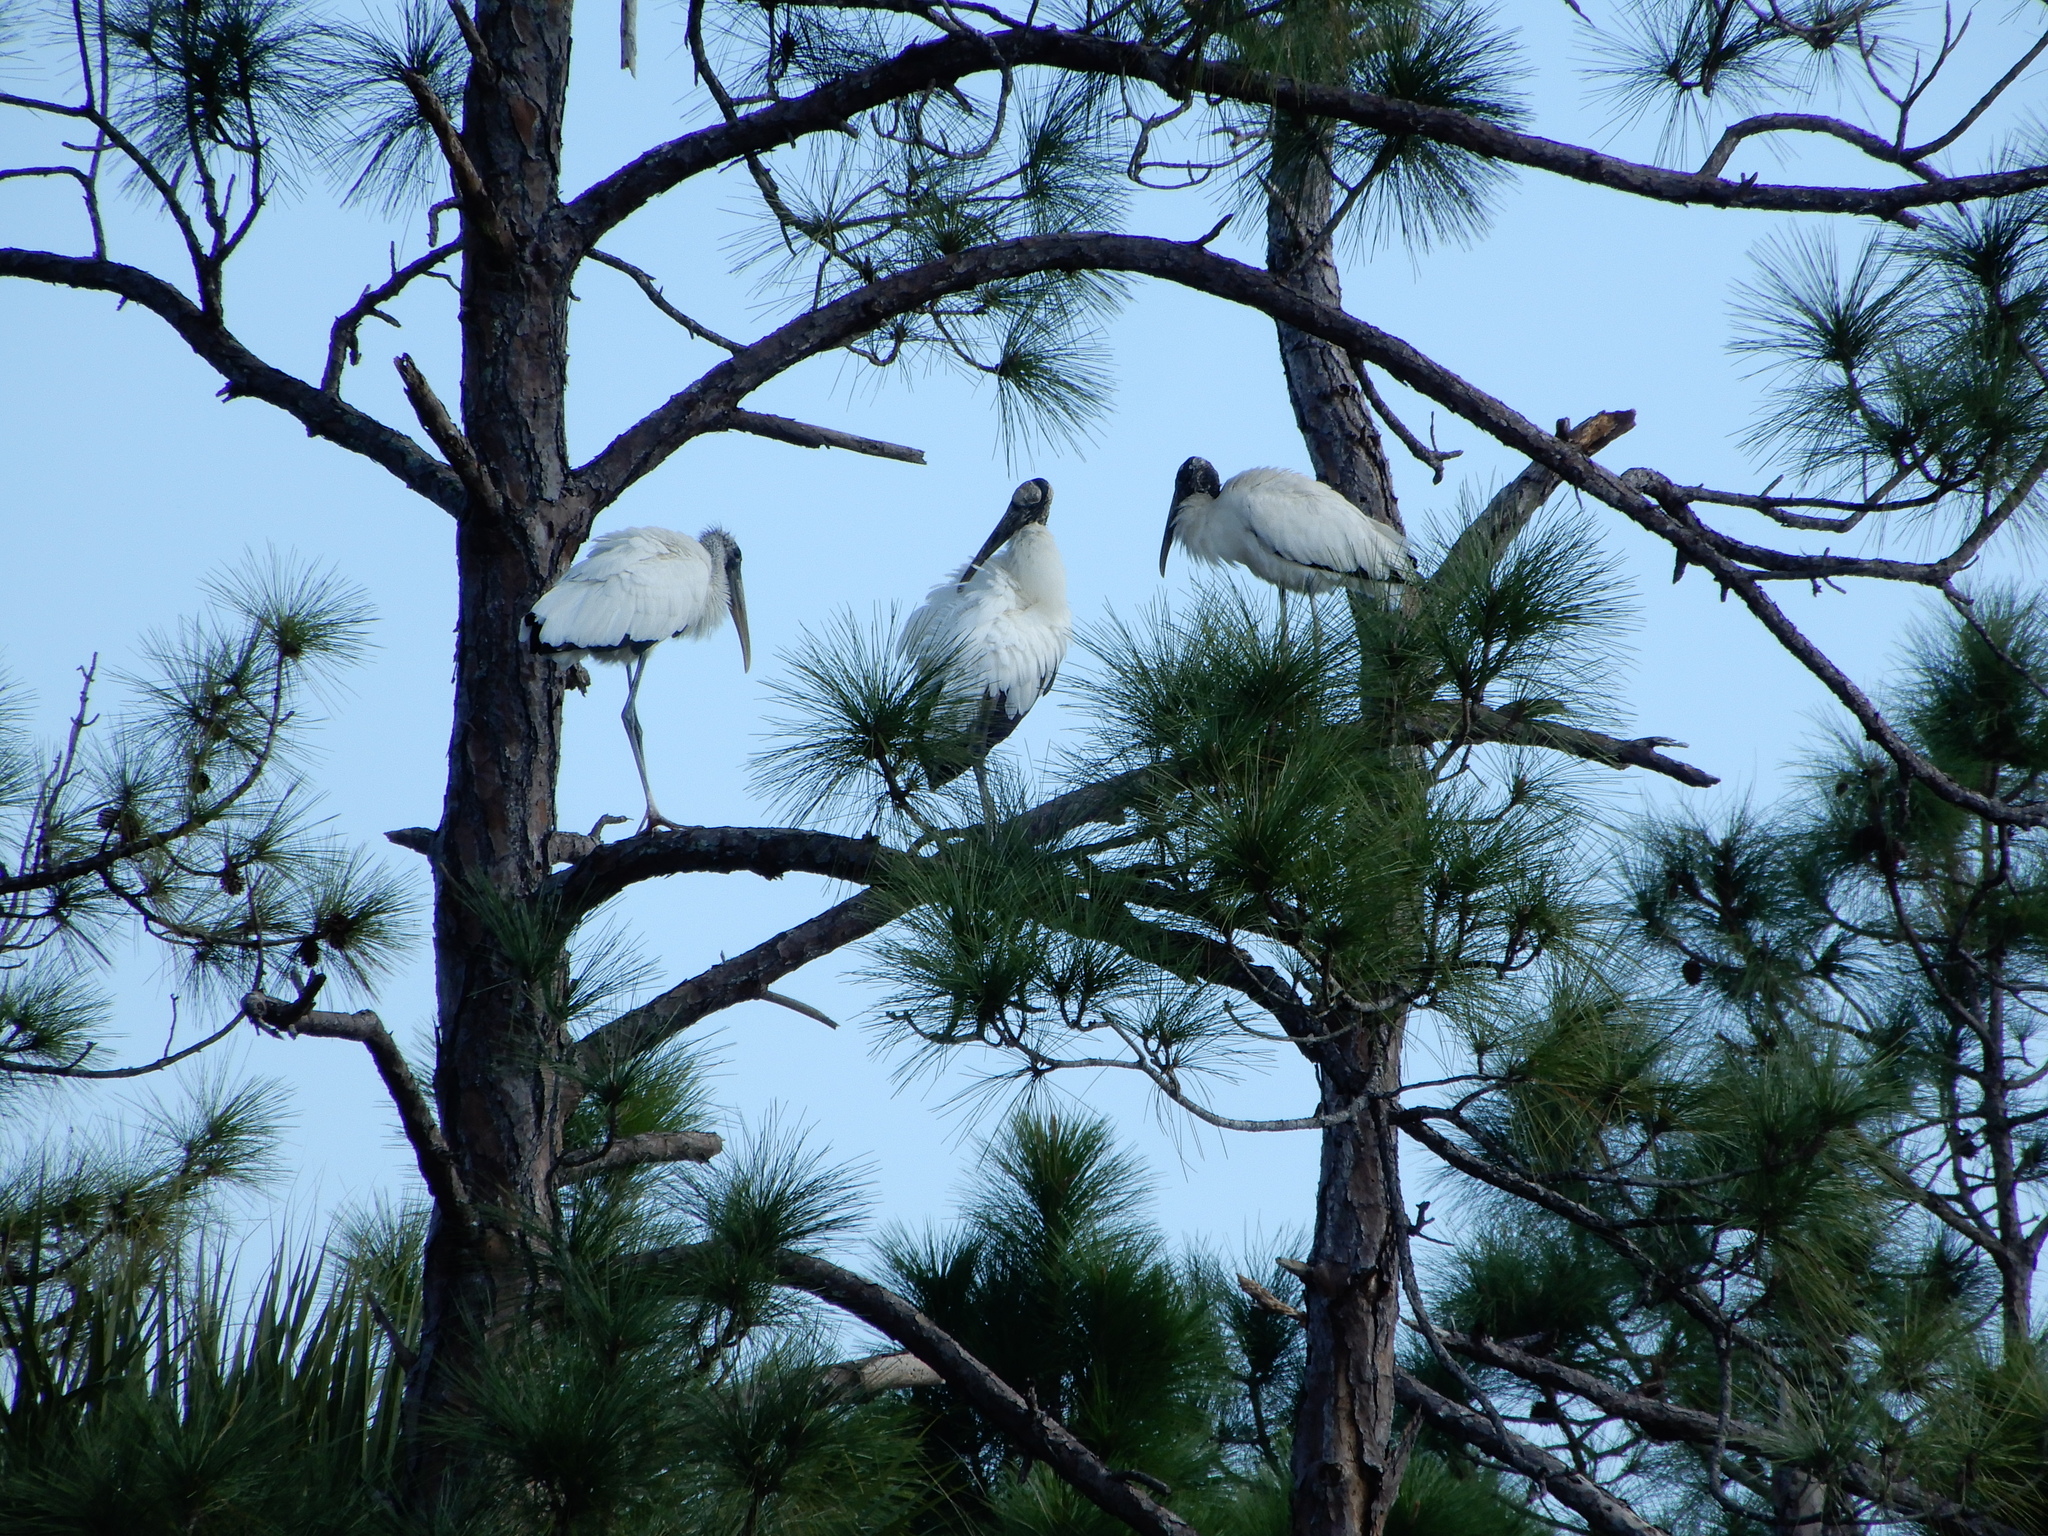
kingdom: Animalia
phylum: Chordata
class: Aves
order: Ciconiiformes
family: Ciconiidae
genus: Mycteria
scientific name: Mycteria americana
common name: Wood stork
